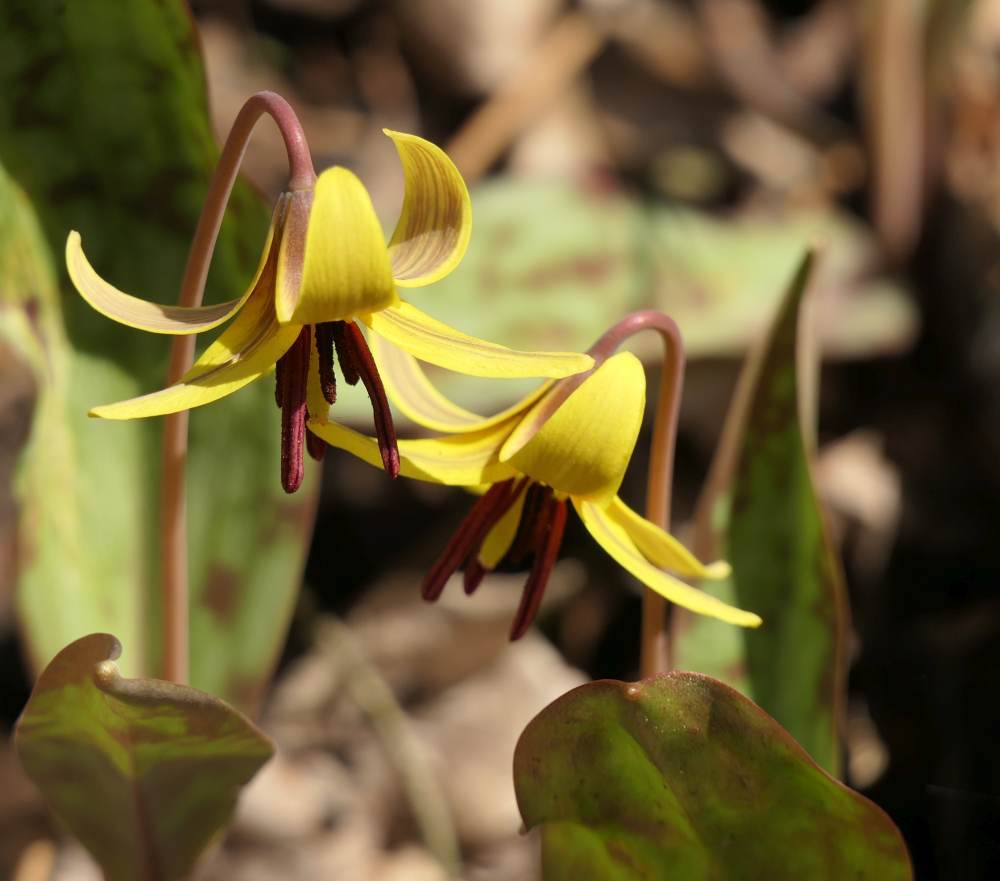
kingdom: Plantae
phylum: Tracheophyta
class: Liliopsida
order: Liliales
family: Liliaceae
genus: Erythronium
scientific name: Erythronium americanum
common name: Yellow adder's-tongue
